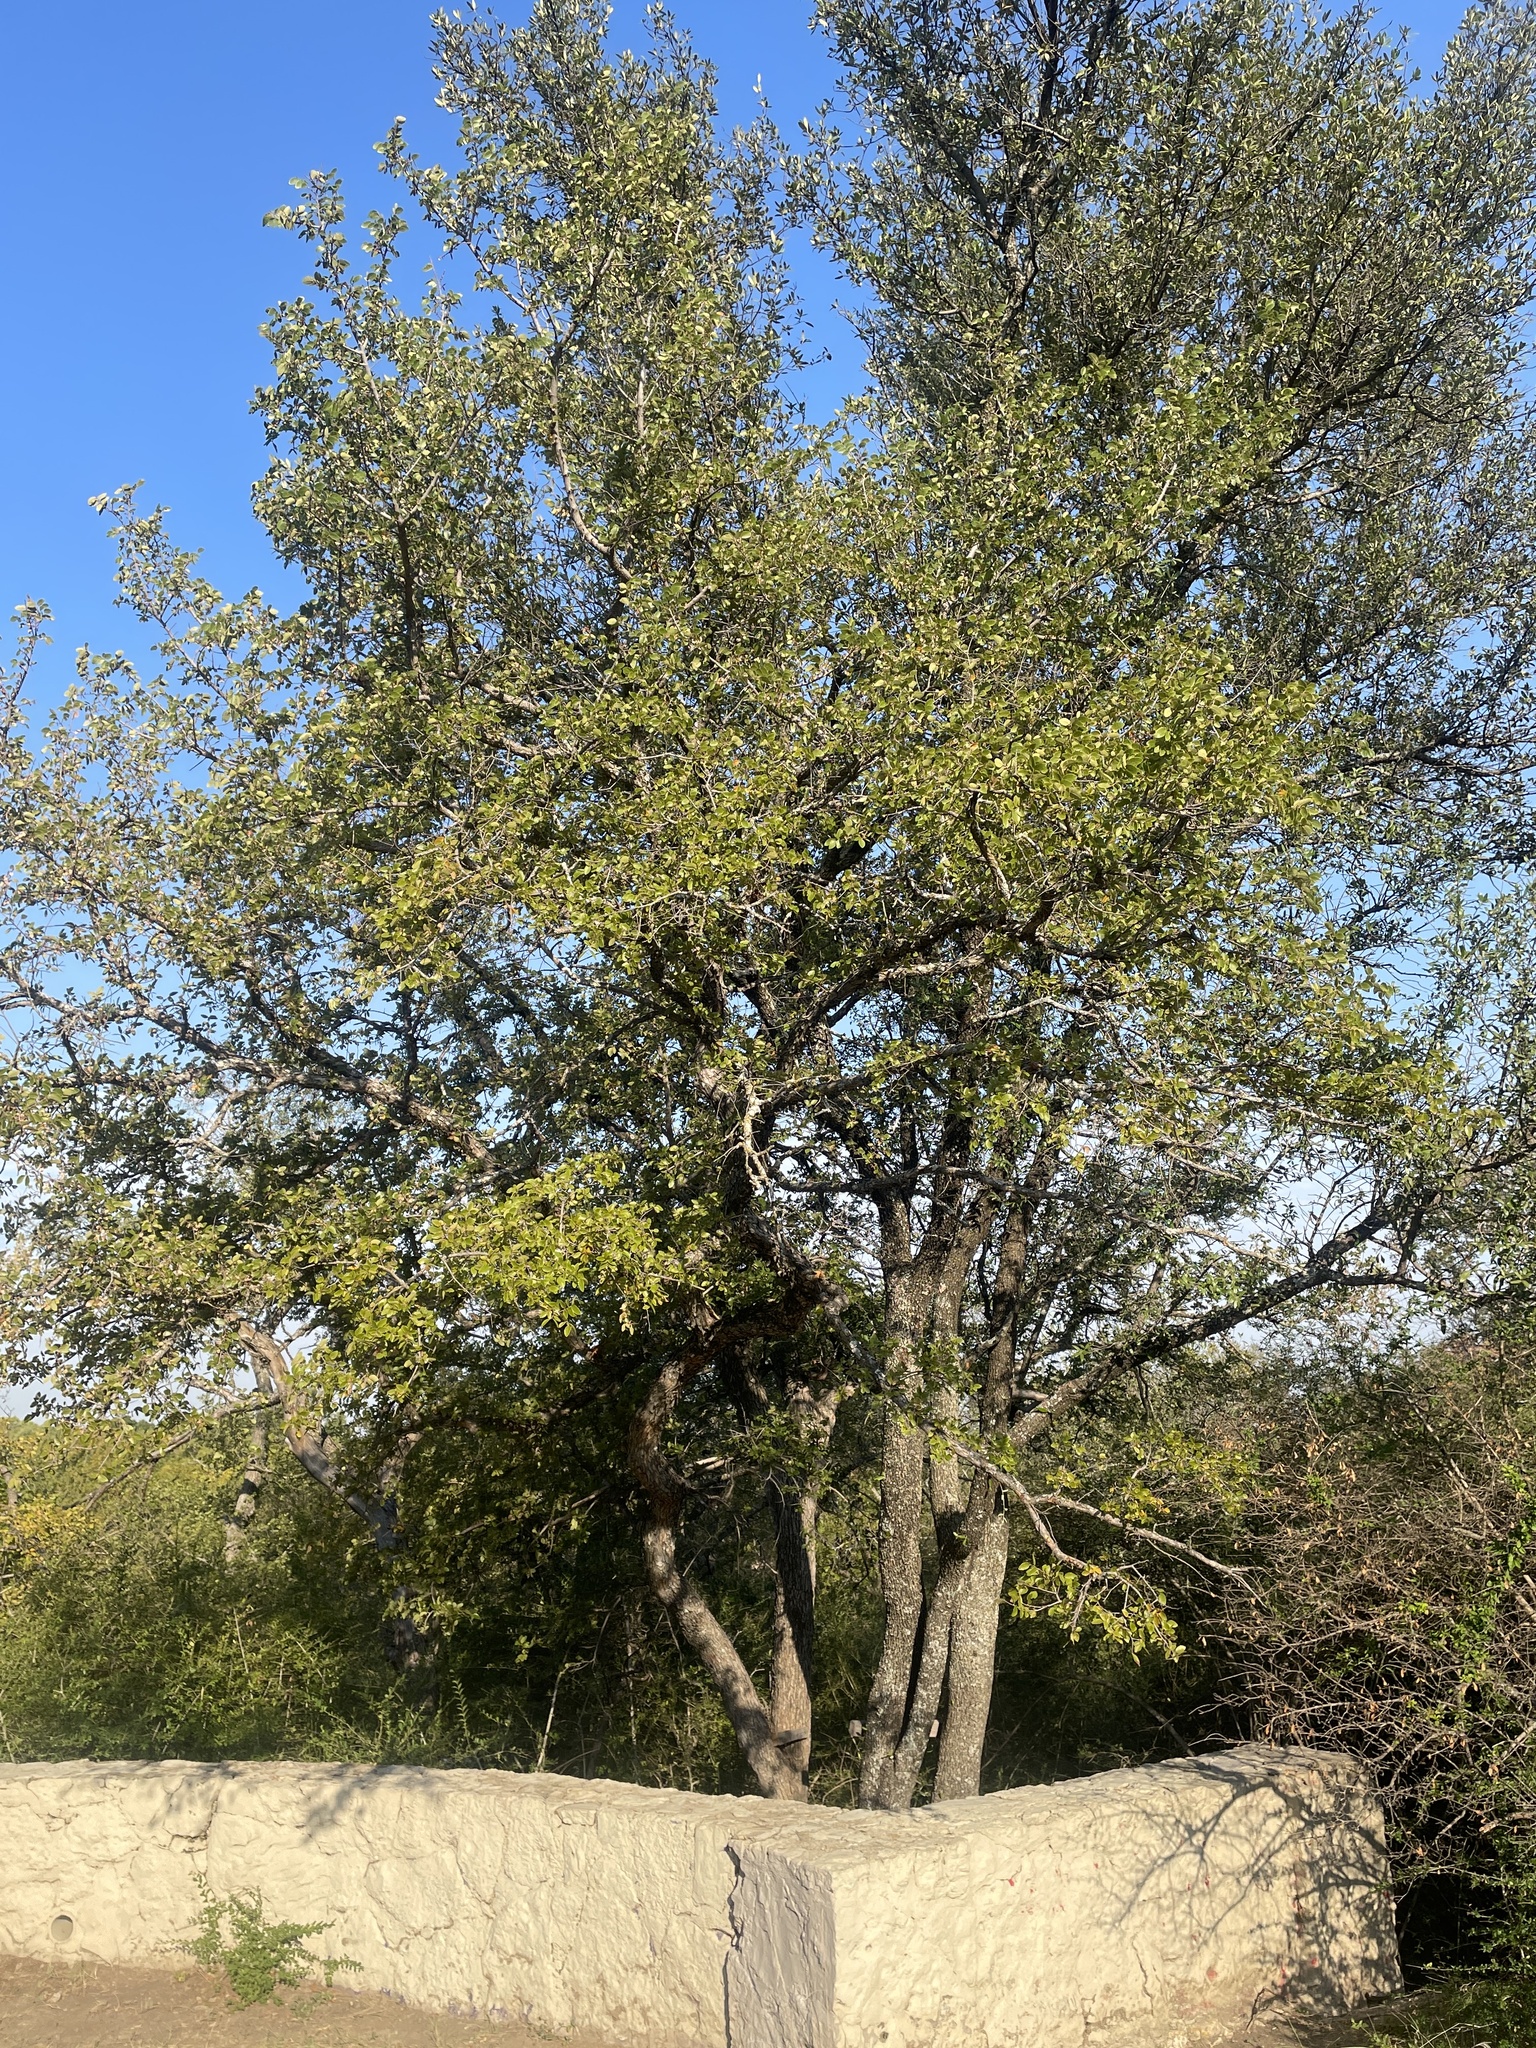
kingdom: Plantae
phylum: Tracheophyta
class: Magnoliopsida
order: Rosales
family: Ulmaceae
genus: Ulmus
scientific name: Ulmus crassifolia
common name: Basket elm
